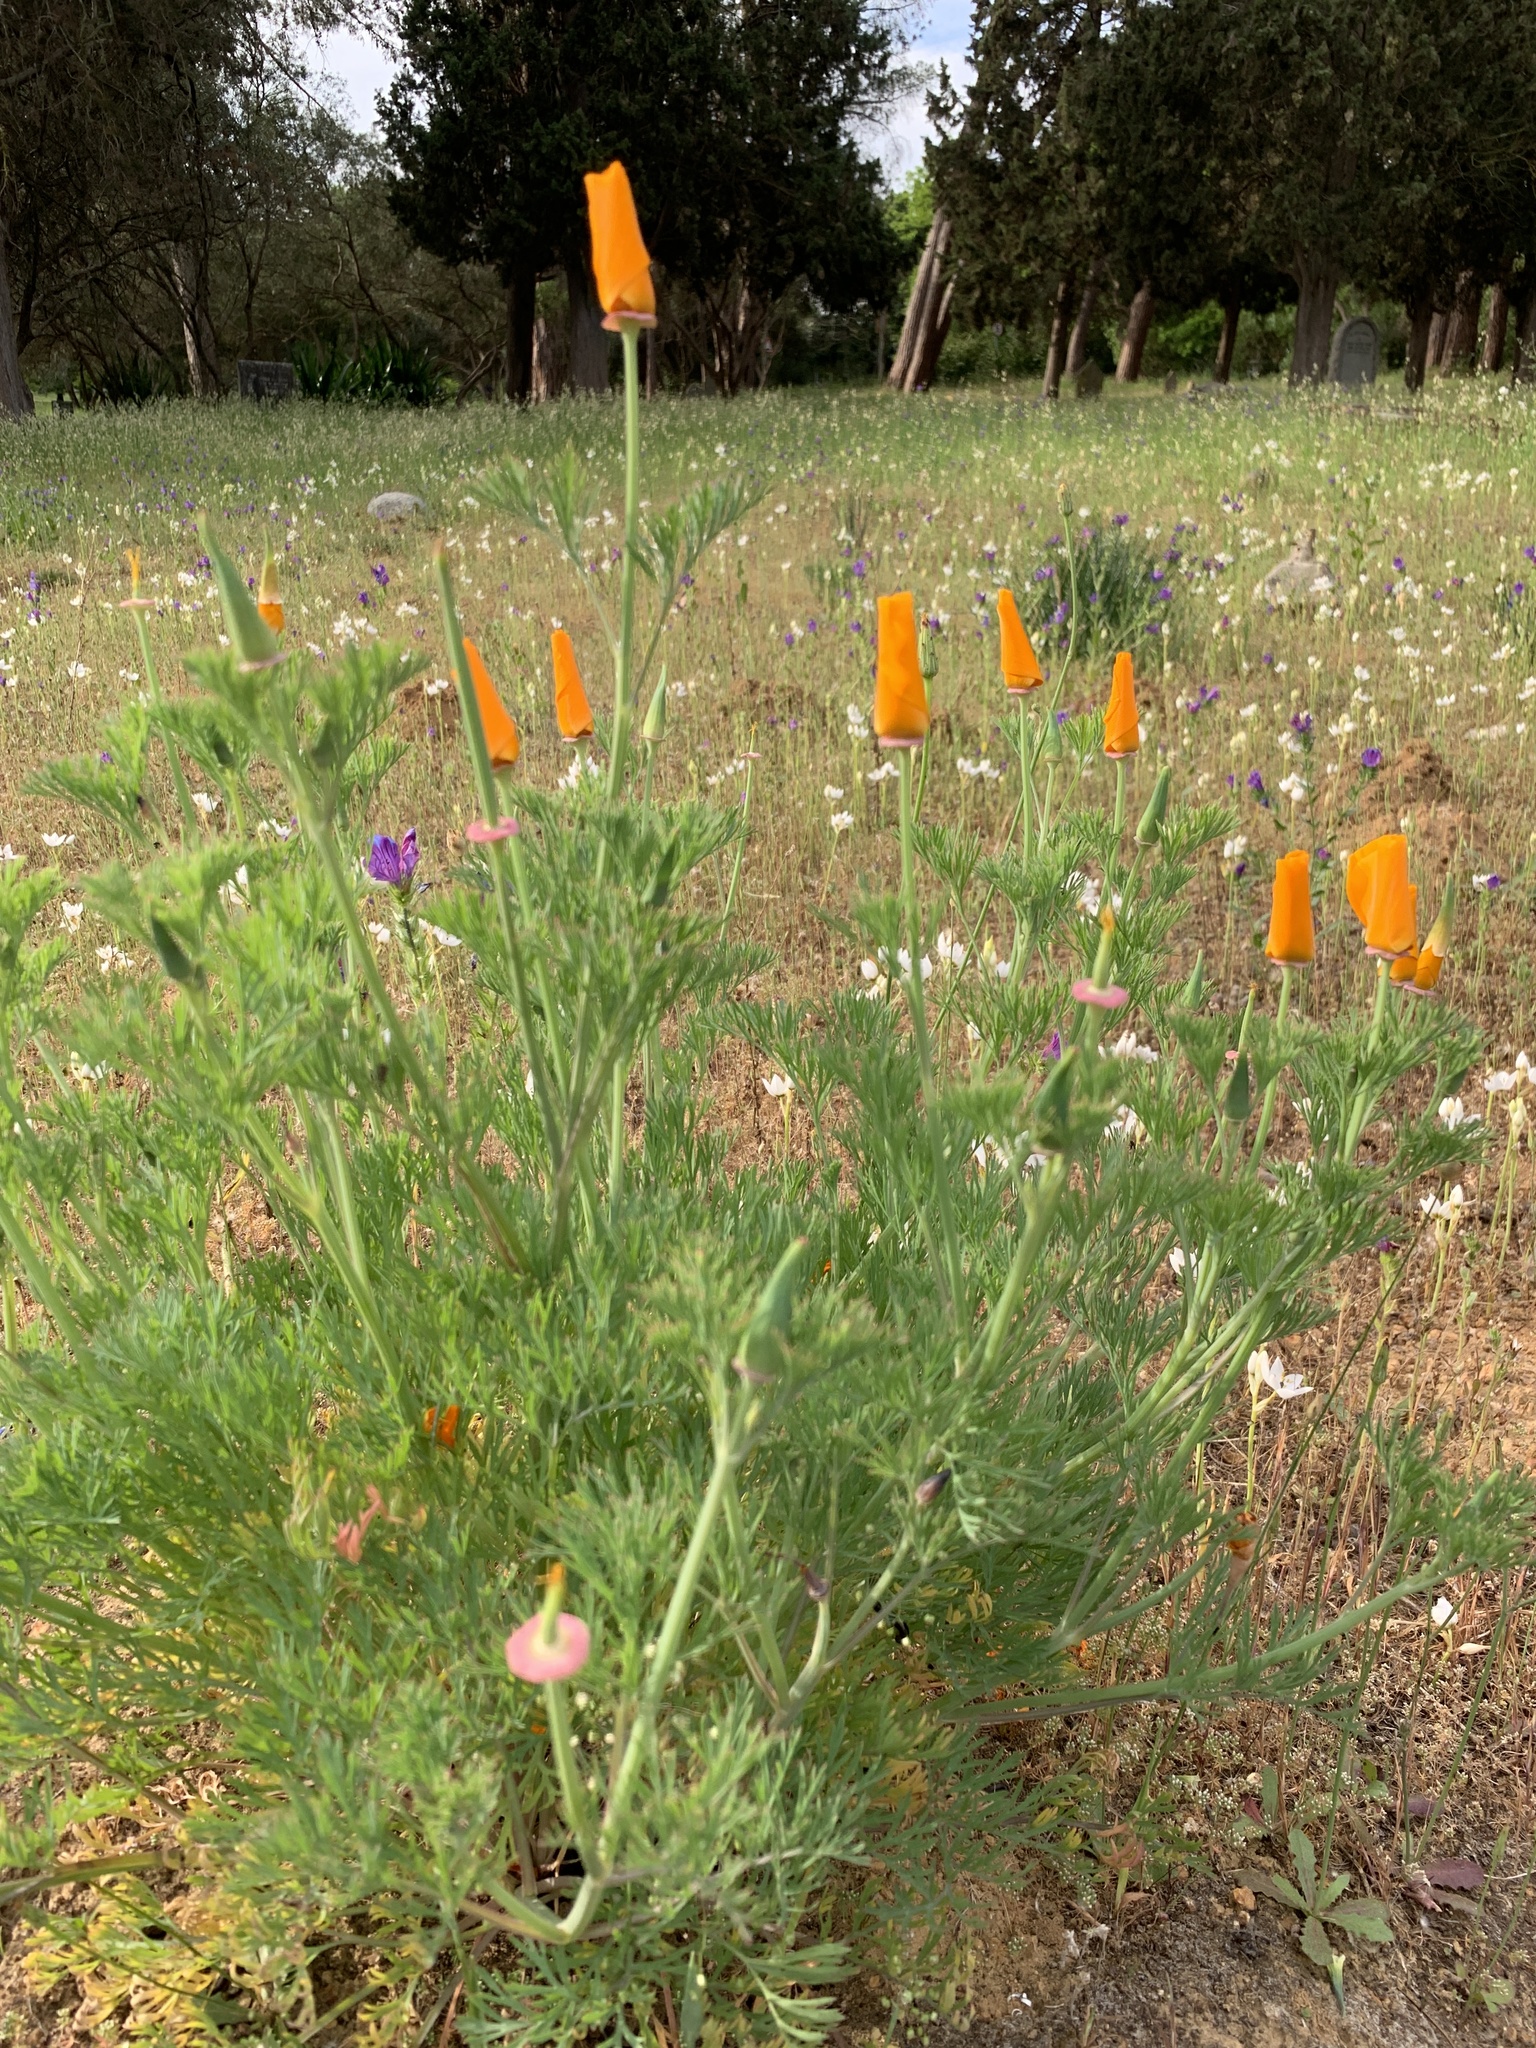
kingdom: Plantae
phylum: Tracheophyta
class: Magnoliopsida
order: Ranunculales
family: Papaveraceae
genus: Eschscholzia
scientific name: Eschscholzia californica
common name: California poppy
